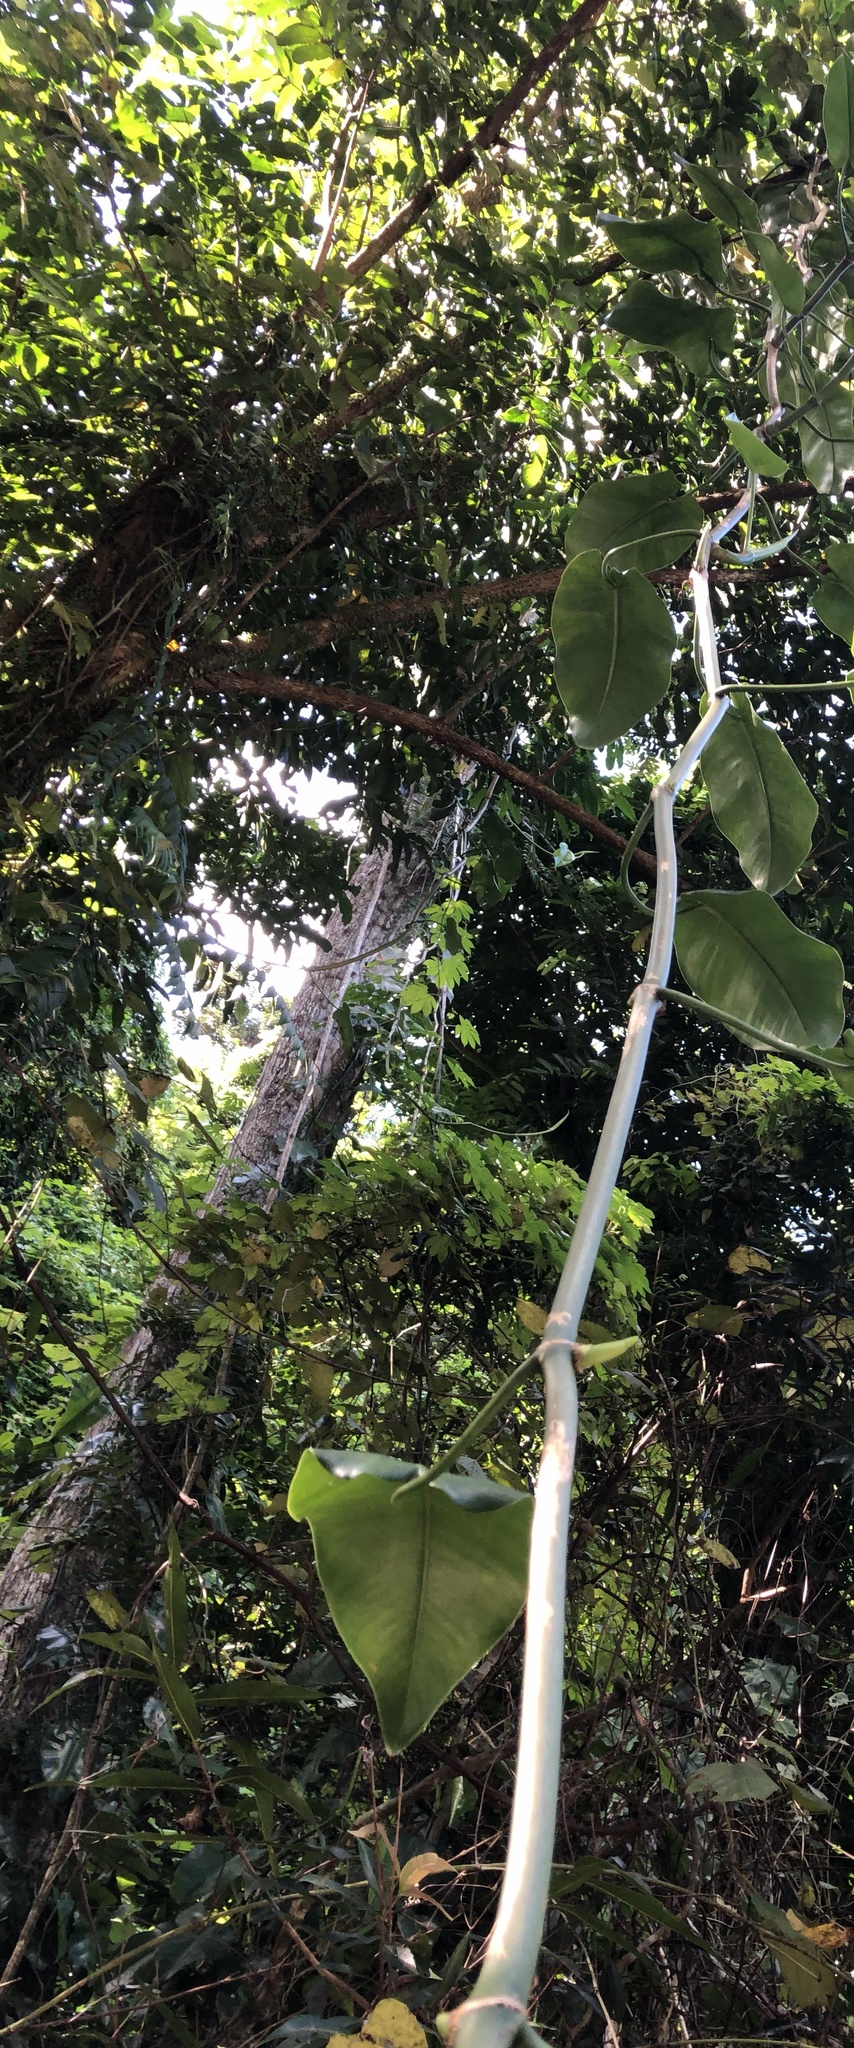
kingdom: Plantae
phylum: Tracheophyta
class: Liliopsida
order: Alismatales
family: Araceae
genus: Philodendron
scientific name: Philodendron consanguineum
